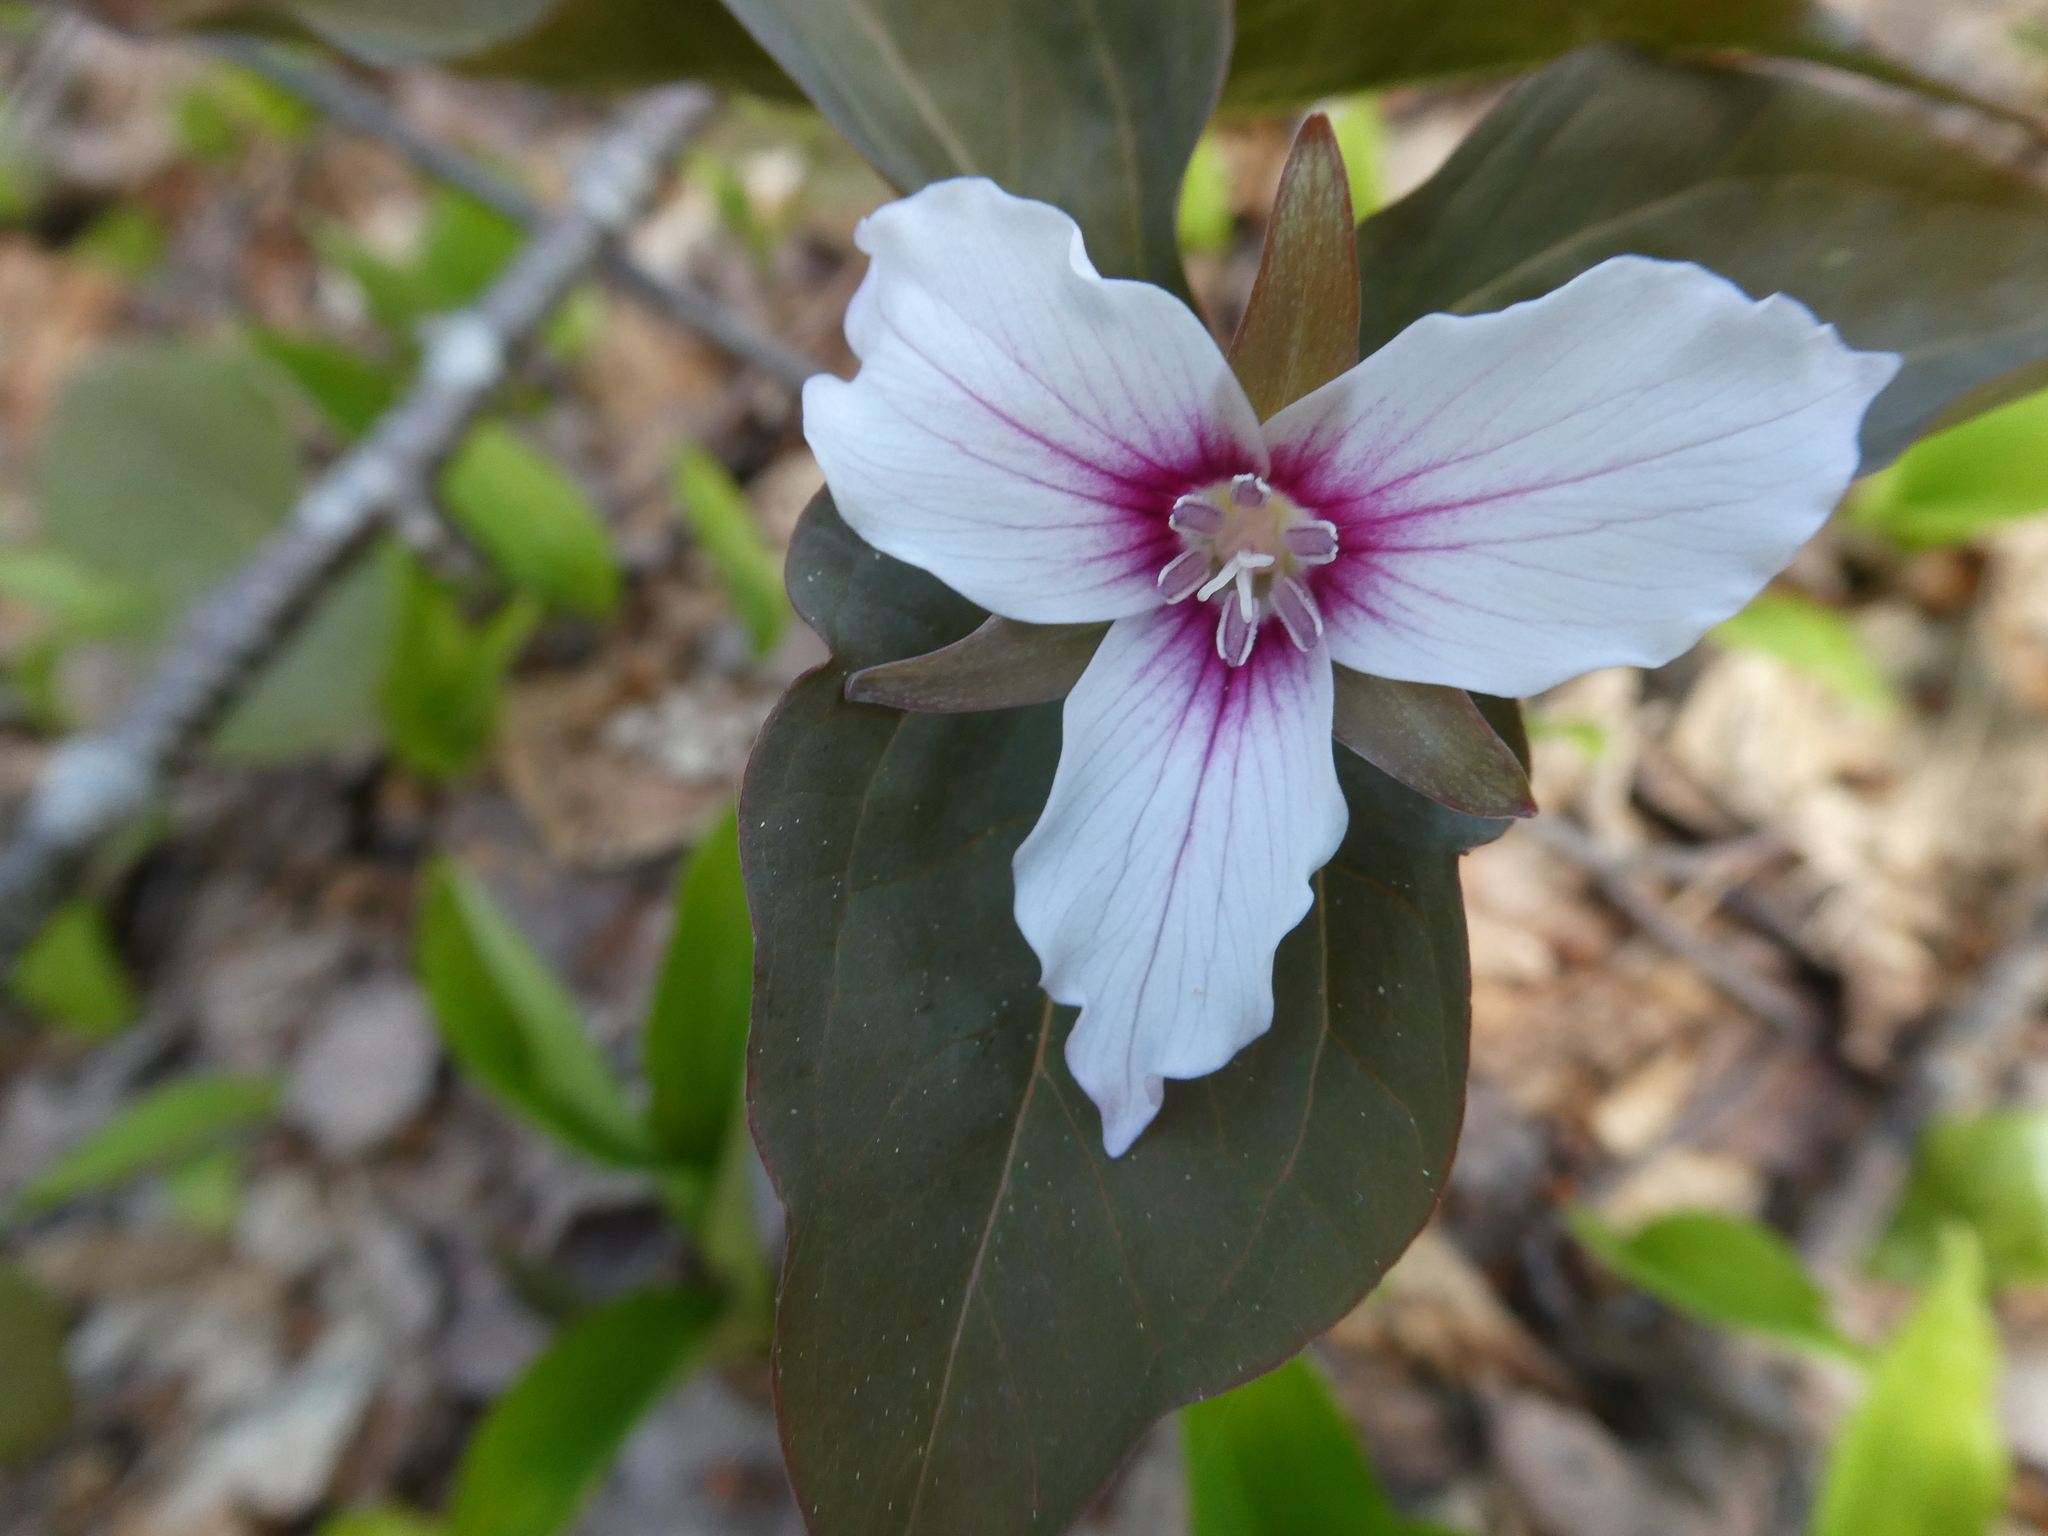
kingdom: Plantae
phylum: Tracheophyta
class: Liliopsida
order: Liliales
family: Melanthiaceae
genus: Trillium
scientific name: Trillium undulatum
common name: Paint trillium
